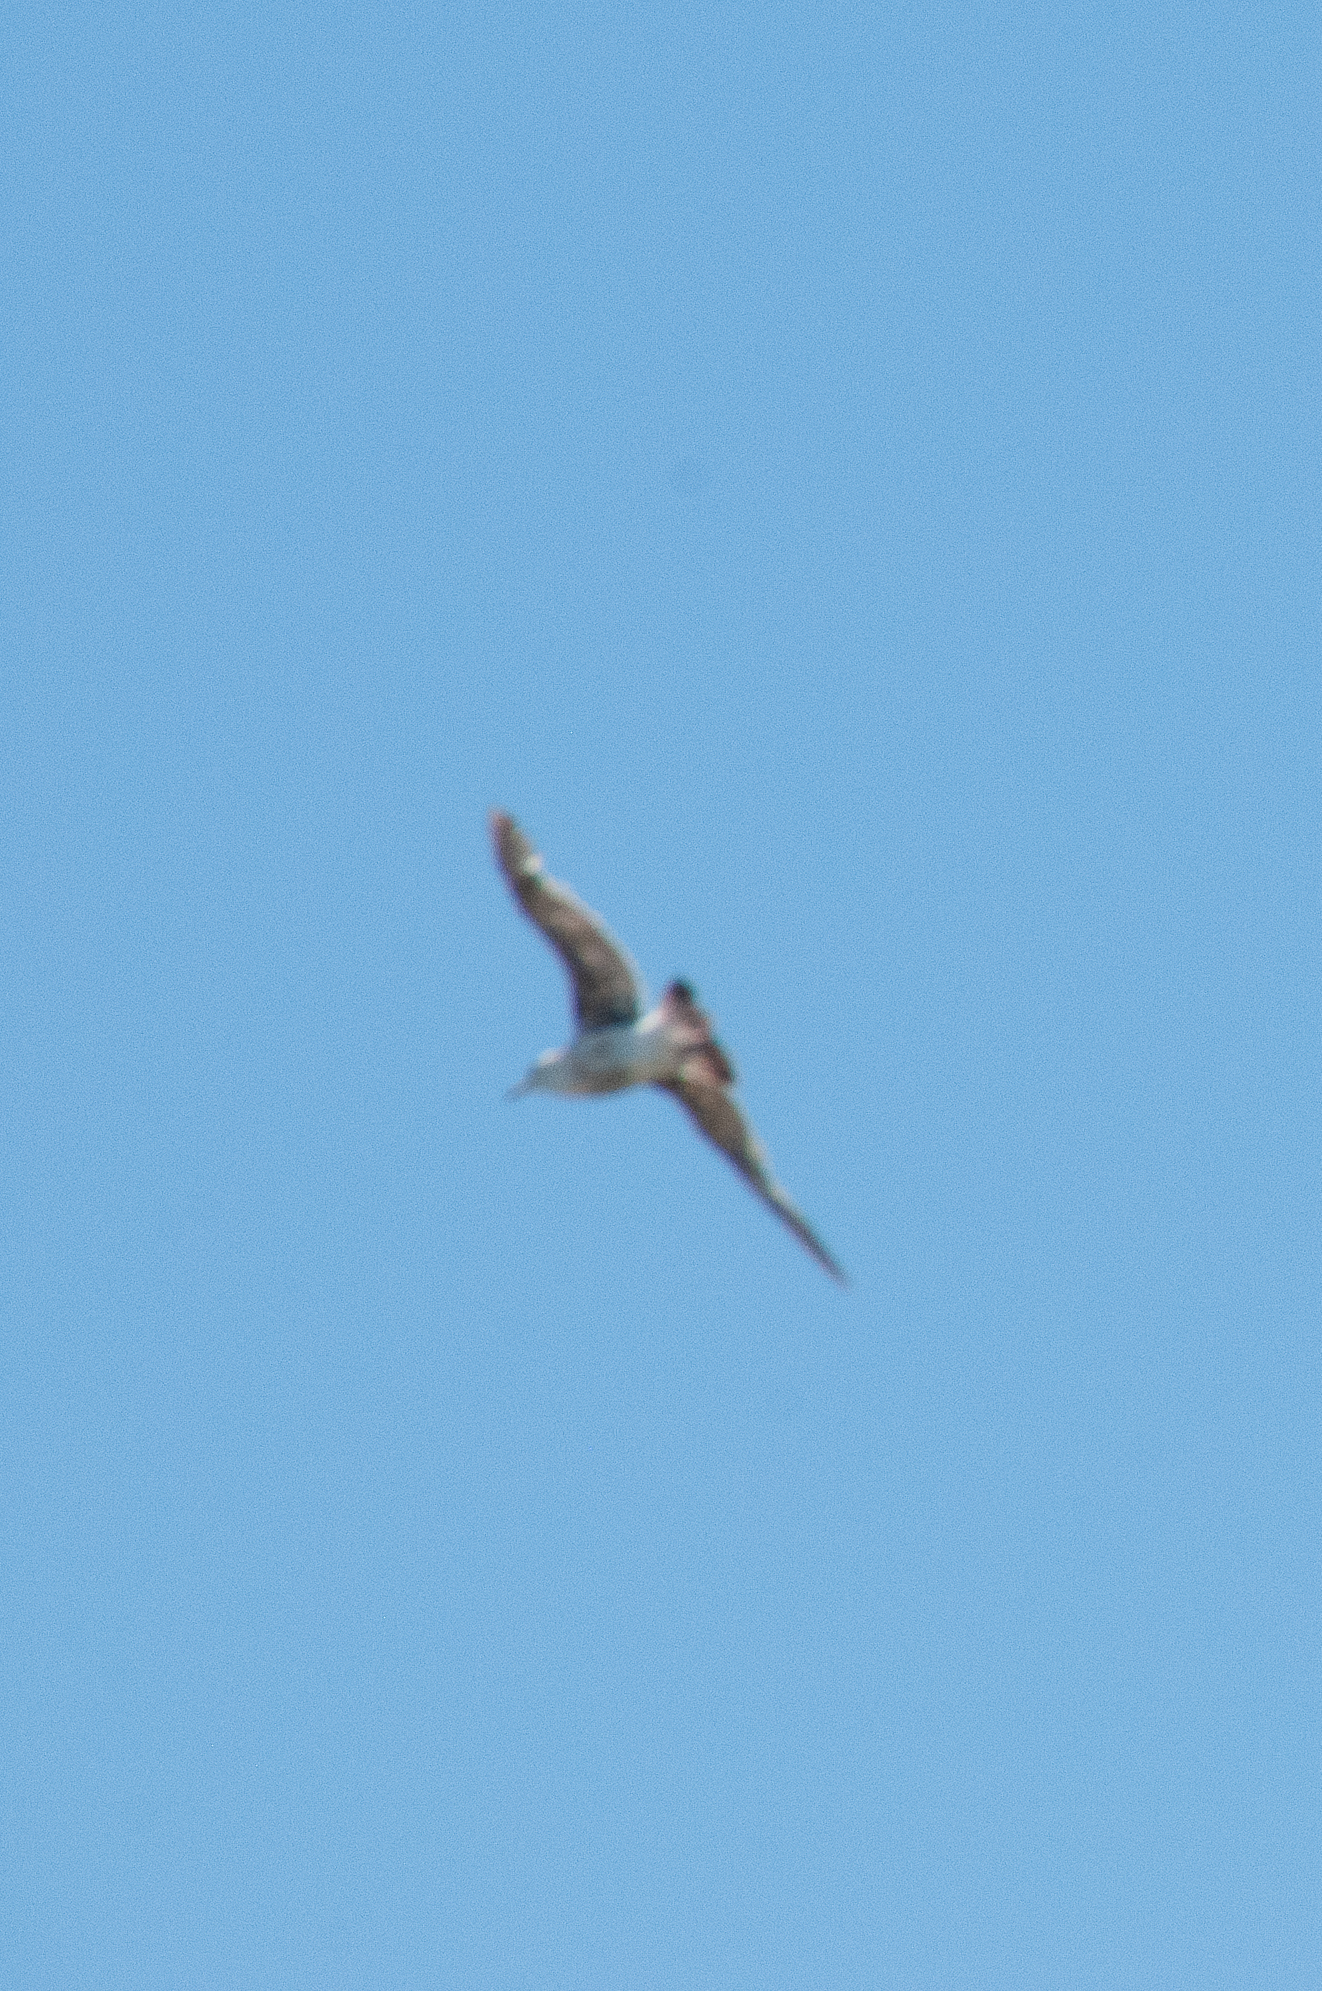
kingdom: Animalia
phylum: Chordata
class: Aves
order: Charadriiformes
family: Laridae
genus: Larus
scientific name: Larus occidentalis
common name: Western gull
